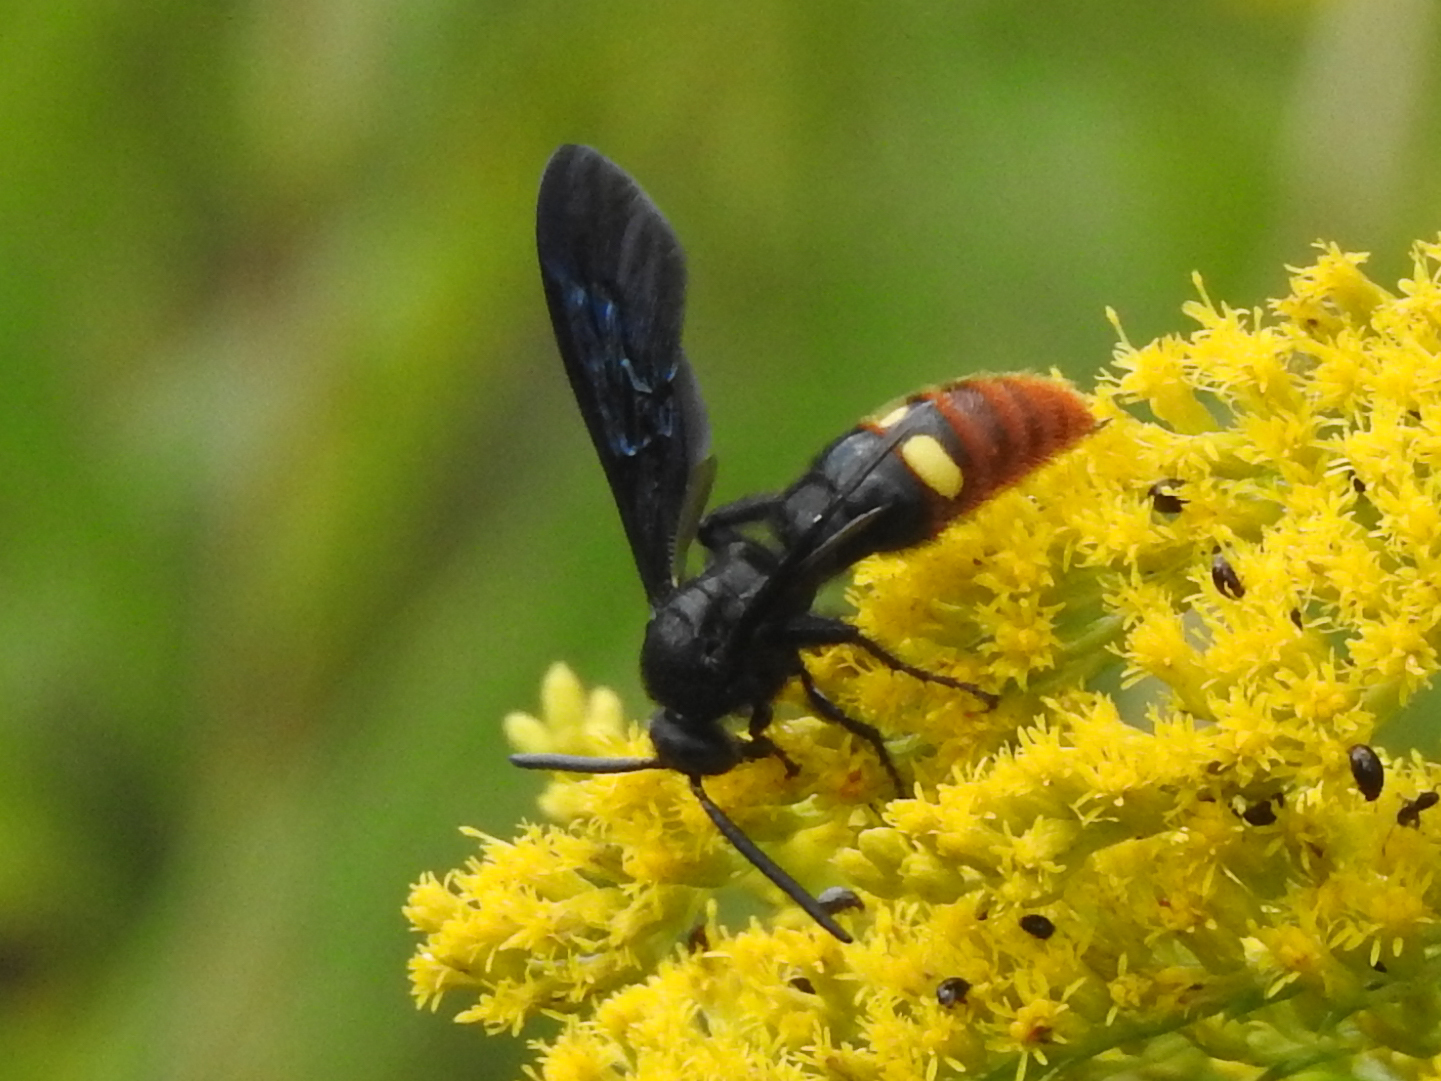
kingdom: Animalia
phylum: Arthropoda
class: Insecta
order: Hymenoptera
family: Scoliidae
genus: Scolia
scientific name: Scolia dubia
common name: Blue-winged scoliid wasp
